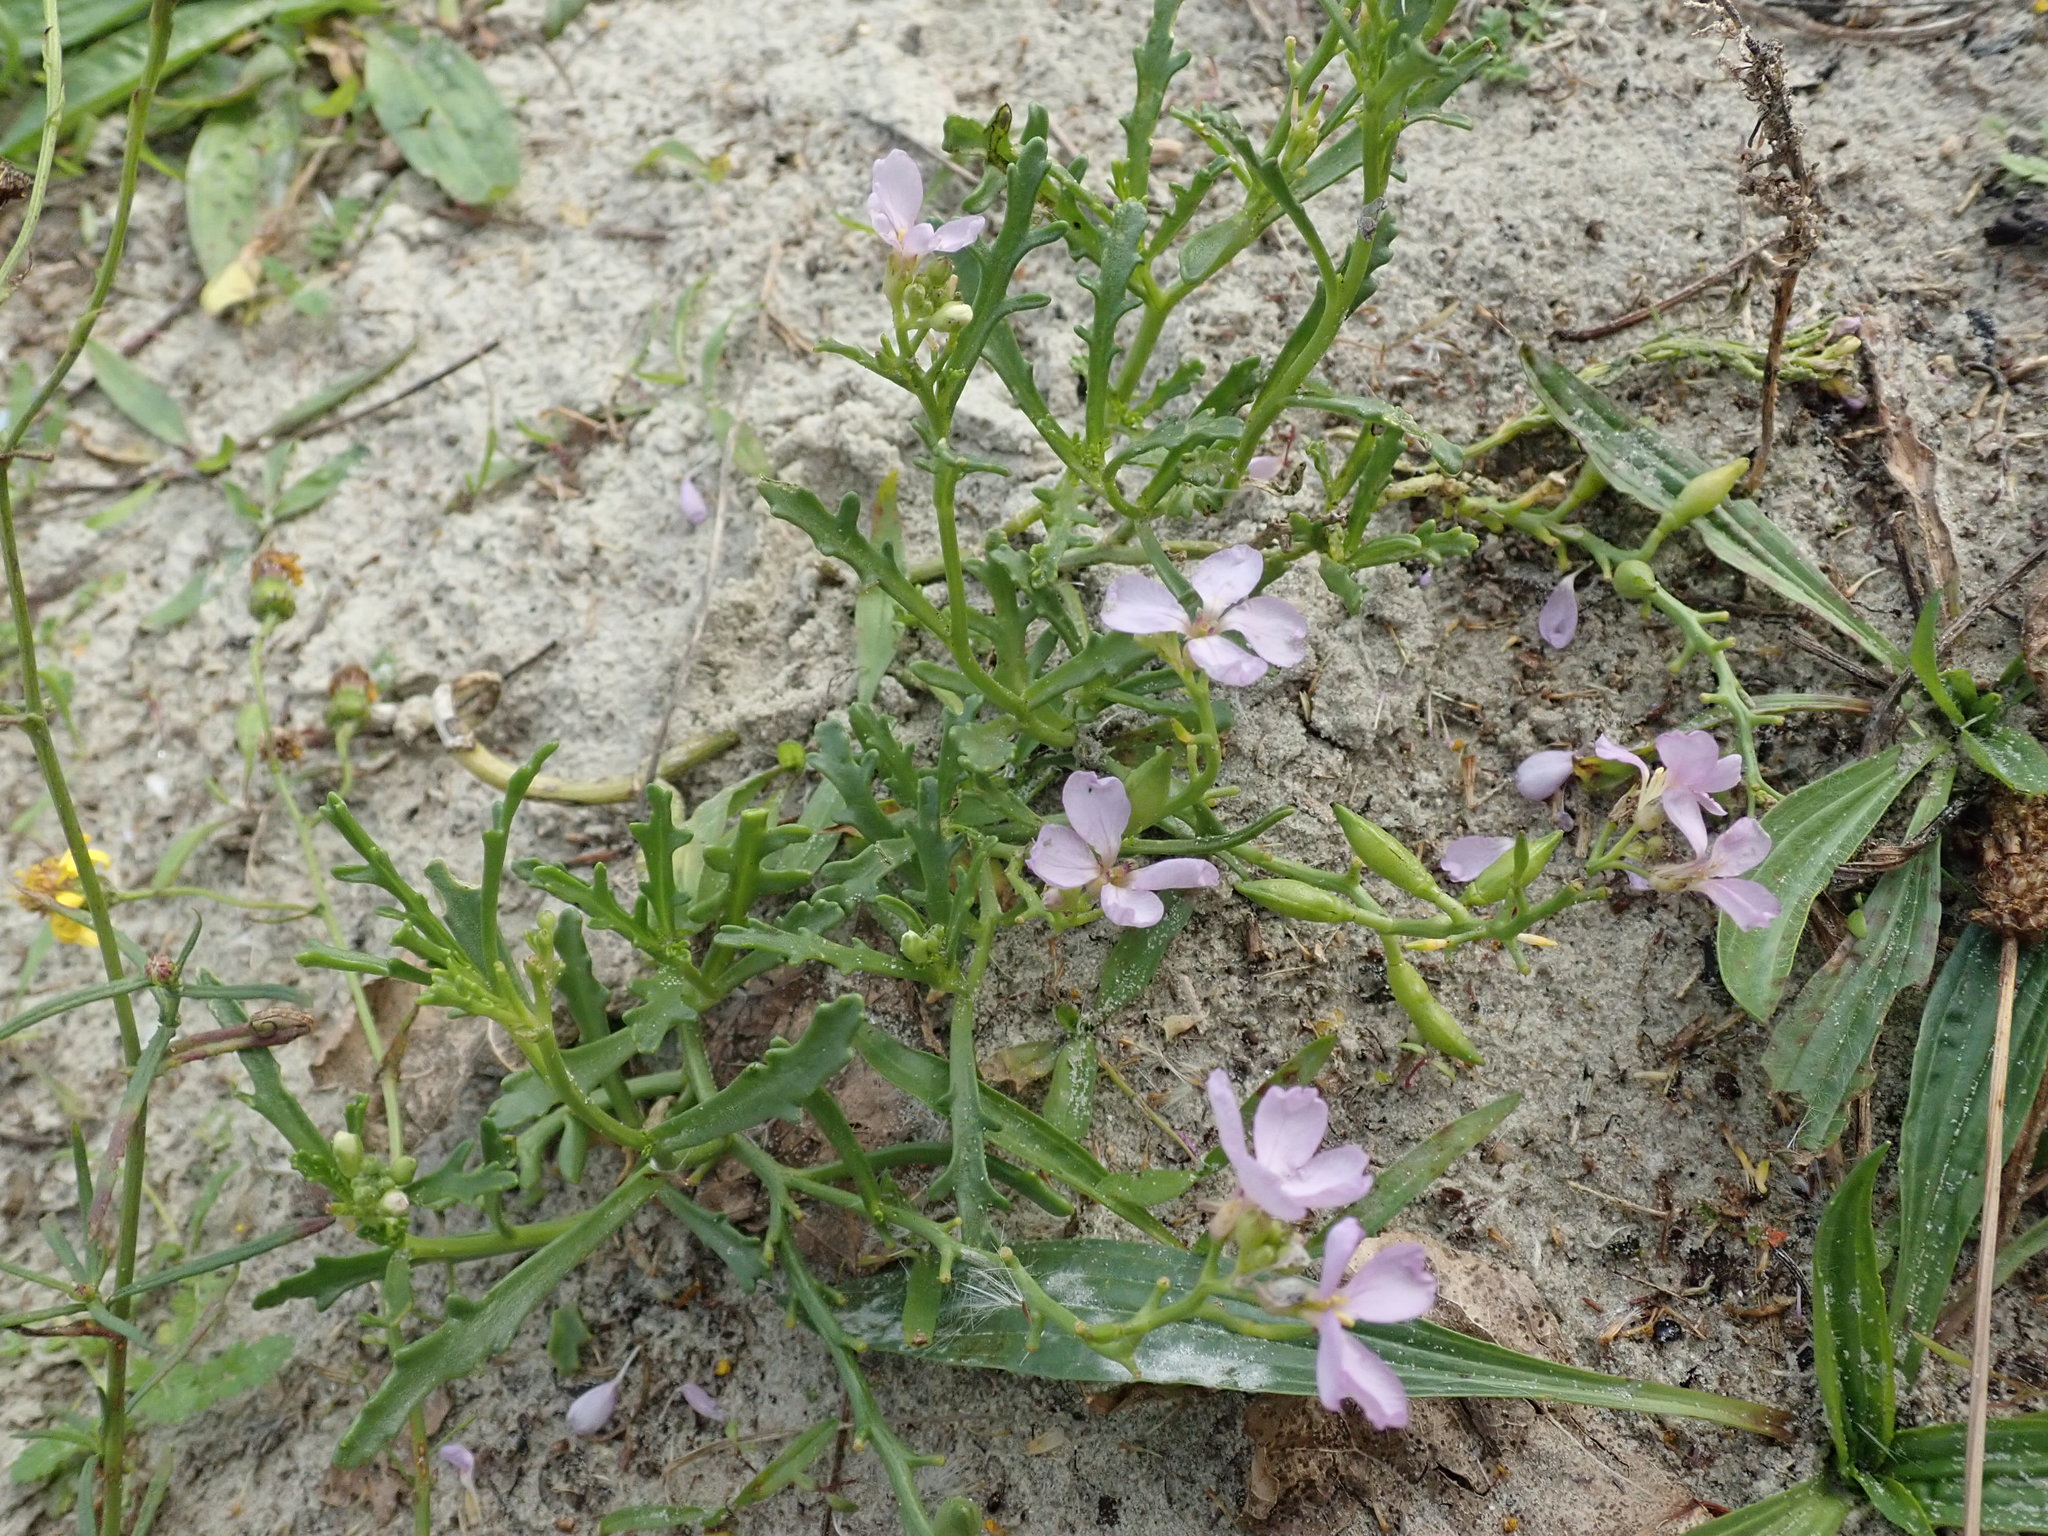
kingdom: Plantae
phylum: Tracheophyta
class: Magnoliopsida
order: Brassicales
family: Brassicaceae
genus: Cakile
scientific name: Cakile maritima
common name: Sea rocket
